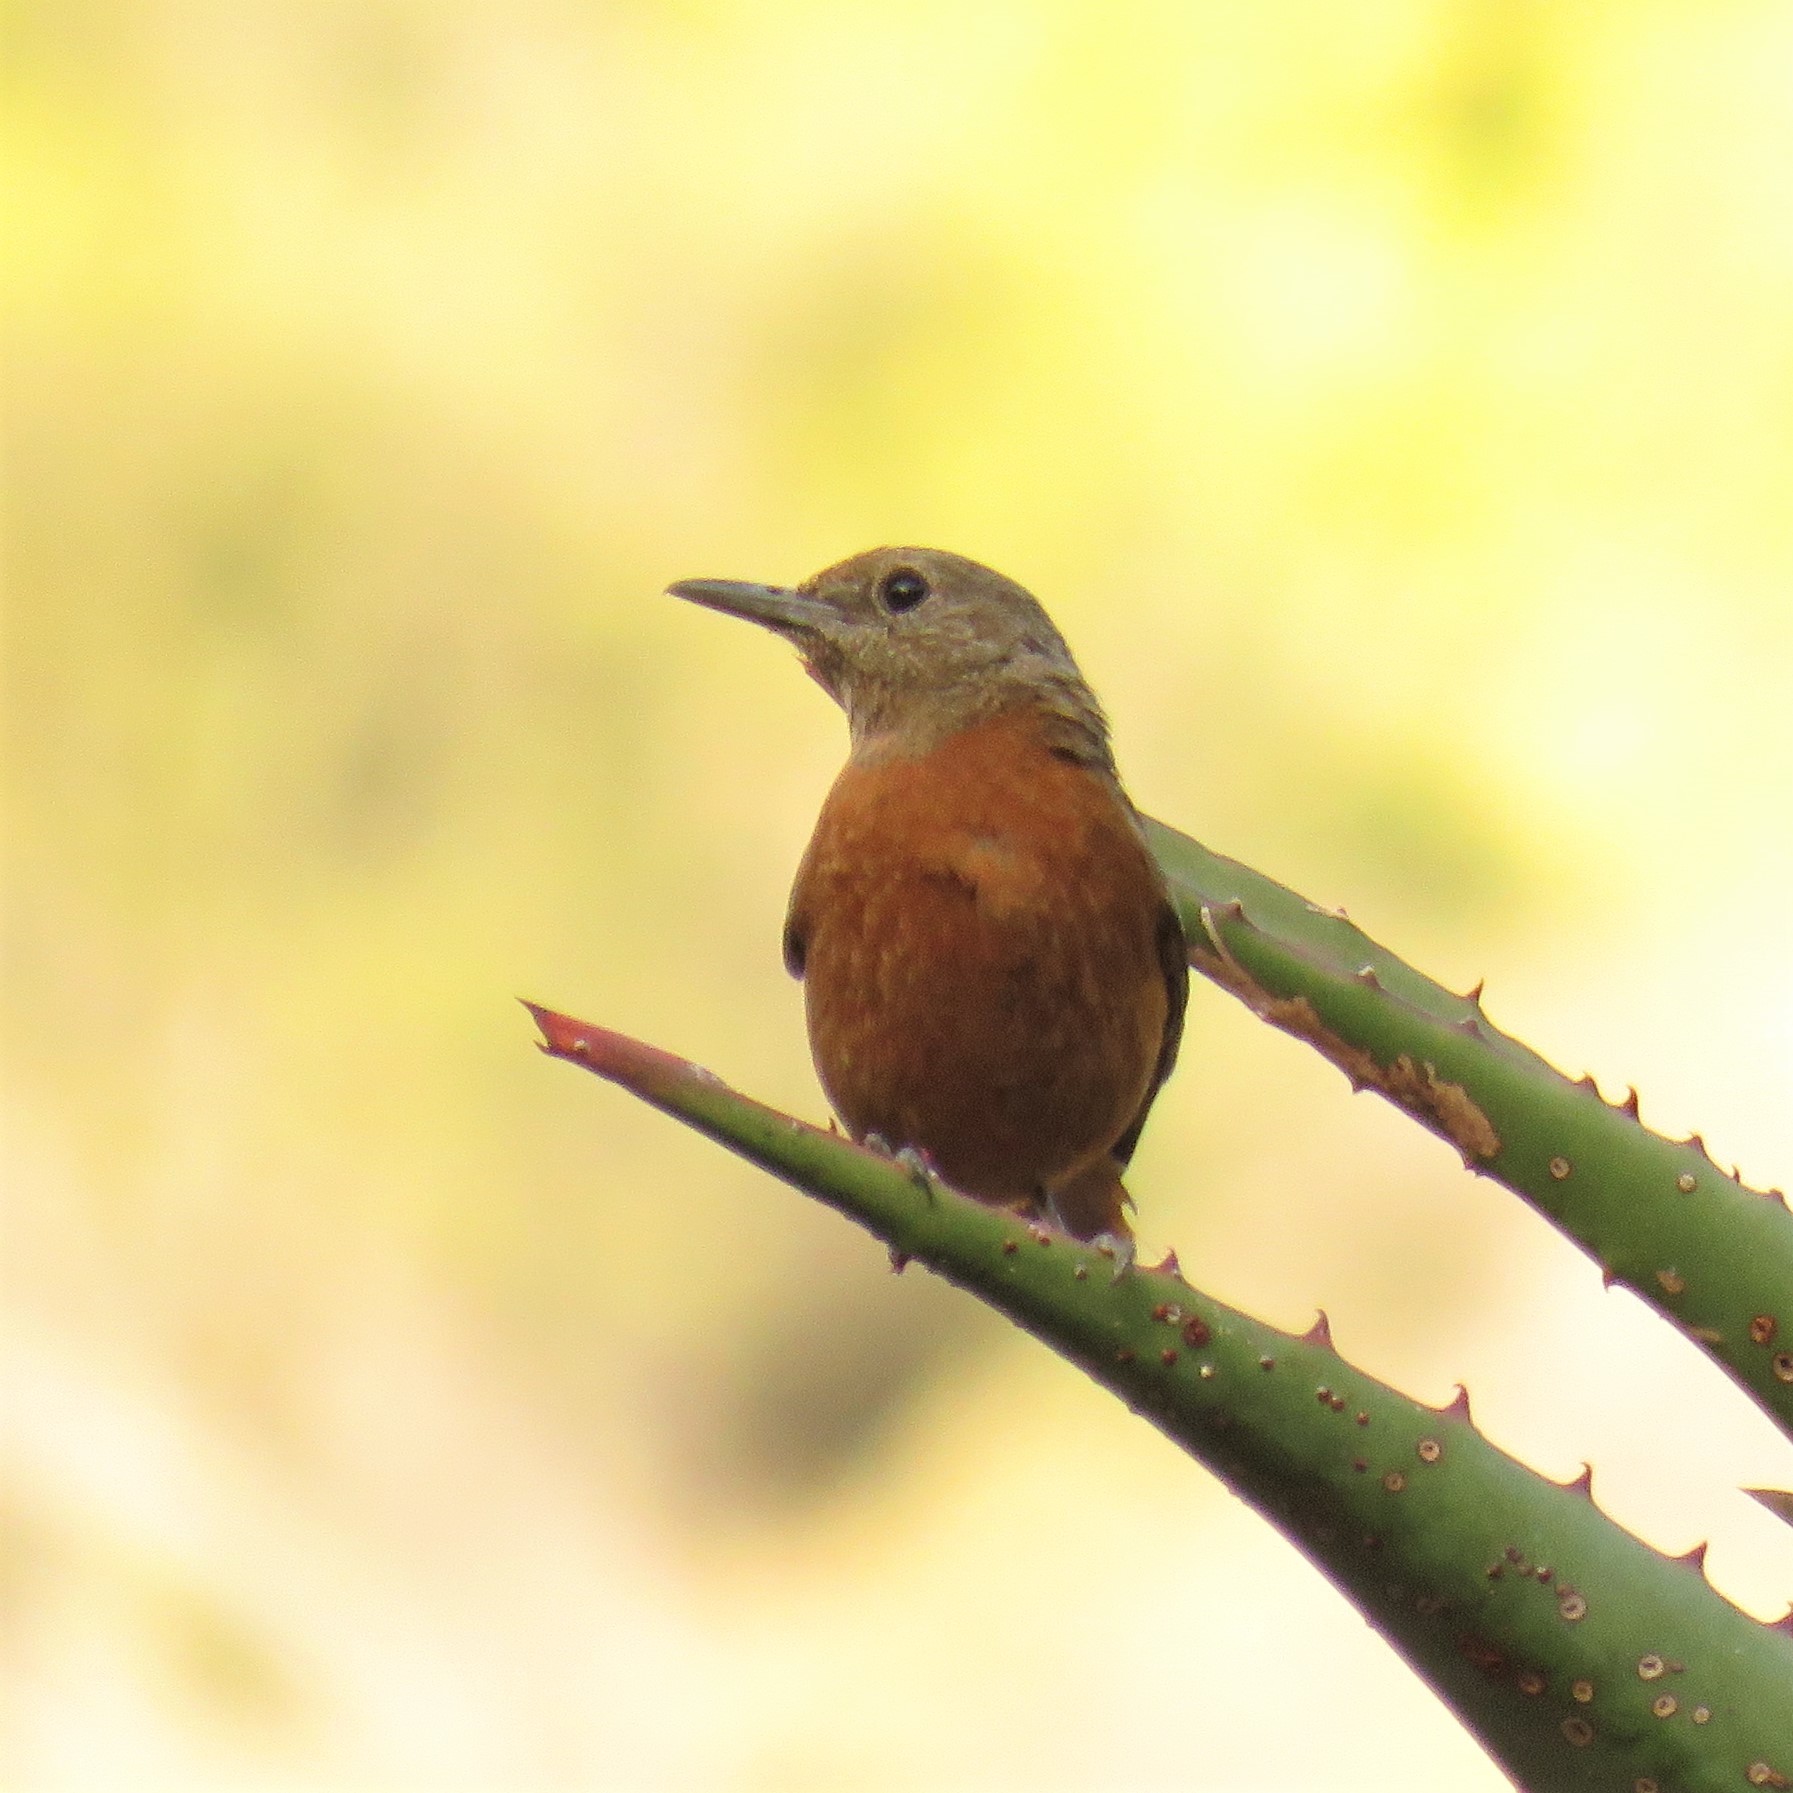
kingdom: Animalia
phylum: Chordata
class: Aves
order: Passeriformes
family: Muscicapidae
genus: Monticola
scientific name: Monticola rupestris
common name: Cape rock thrush
